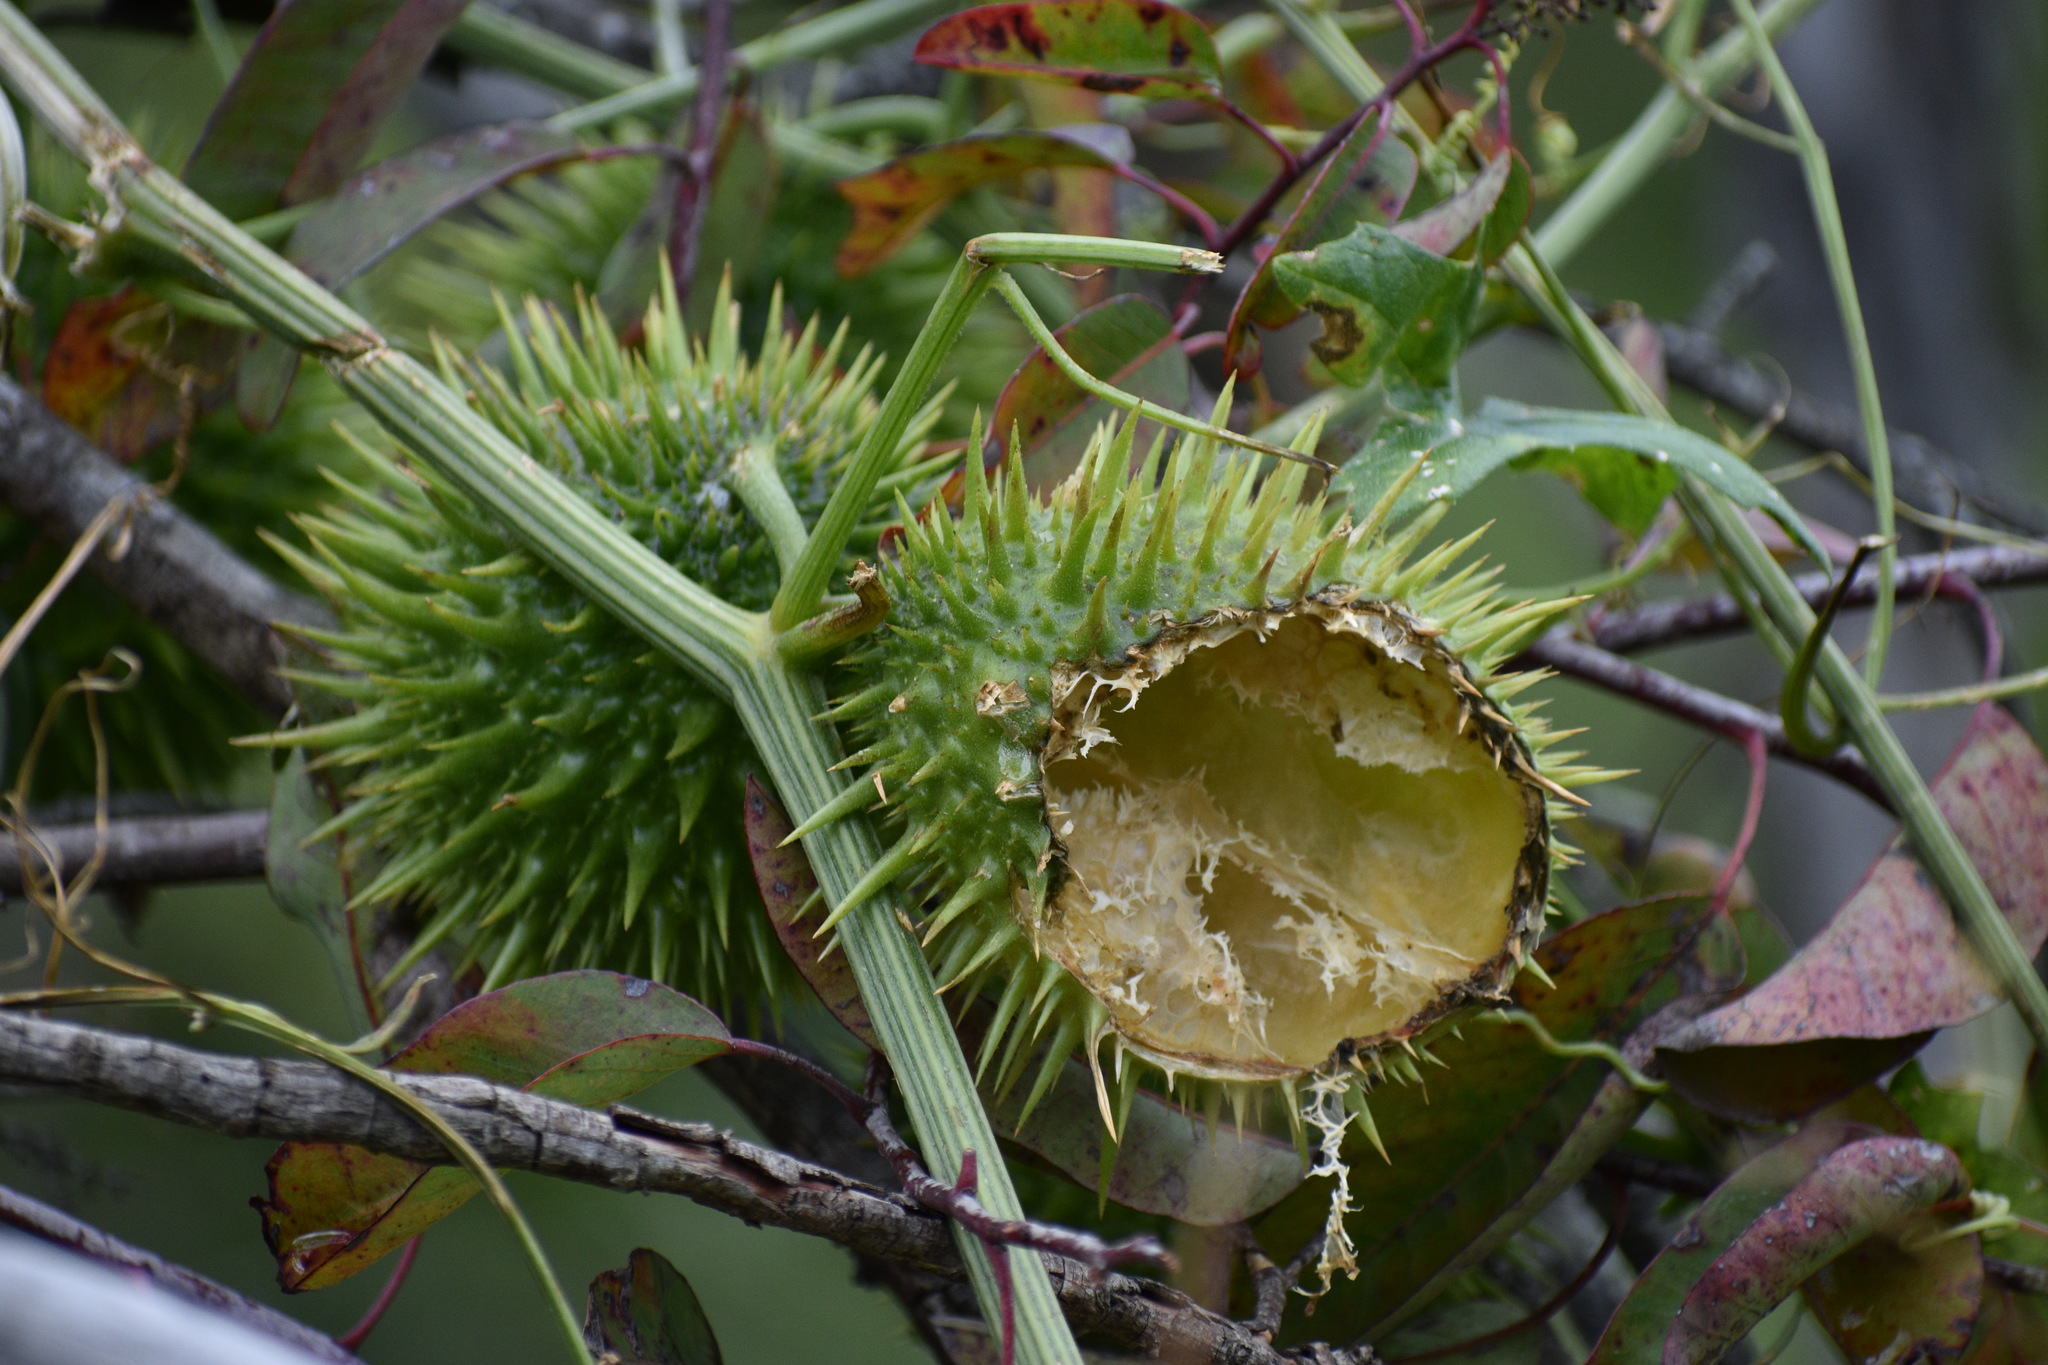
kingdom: Plantae
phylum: Tracheophyta
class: Magnoliopsida
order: Cucurbitales
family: Cucurbitaceae
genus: Marah
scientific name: Marah macrocarpa
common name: Cucamonga manroot
